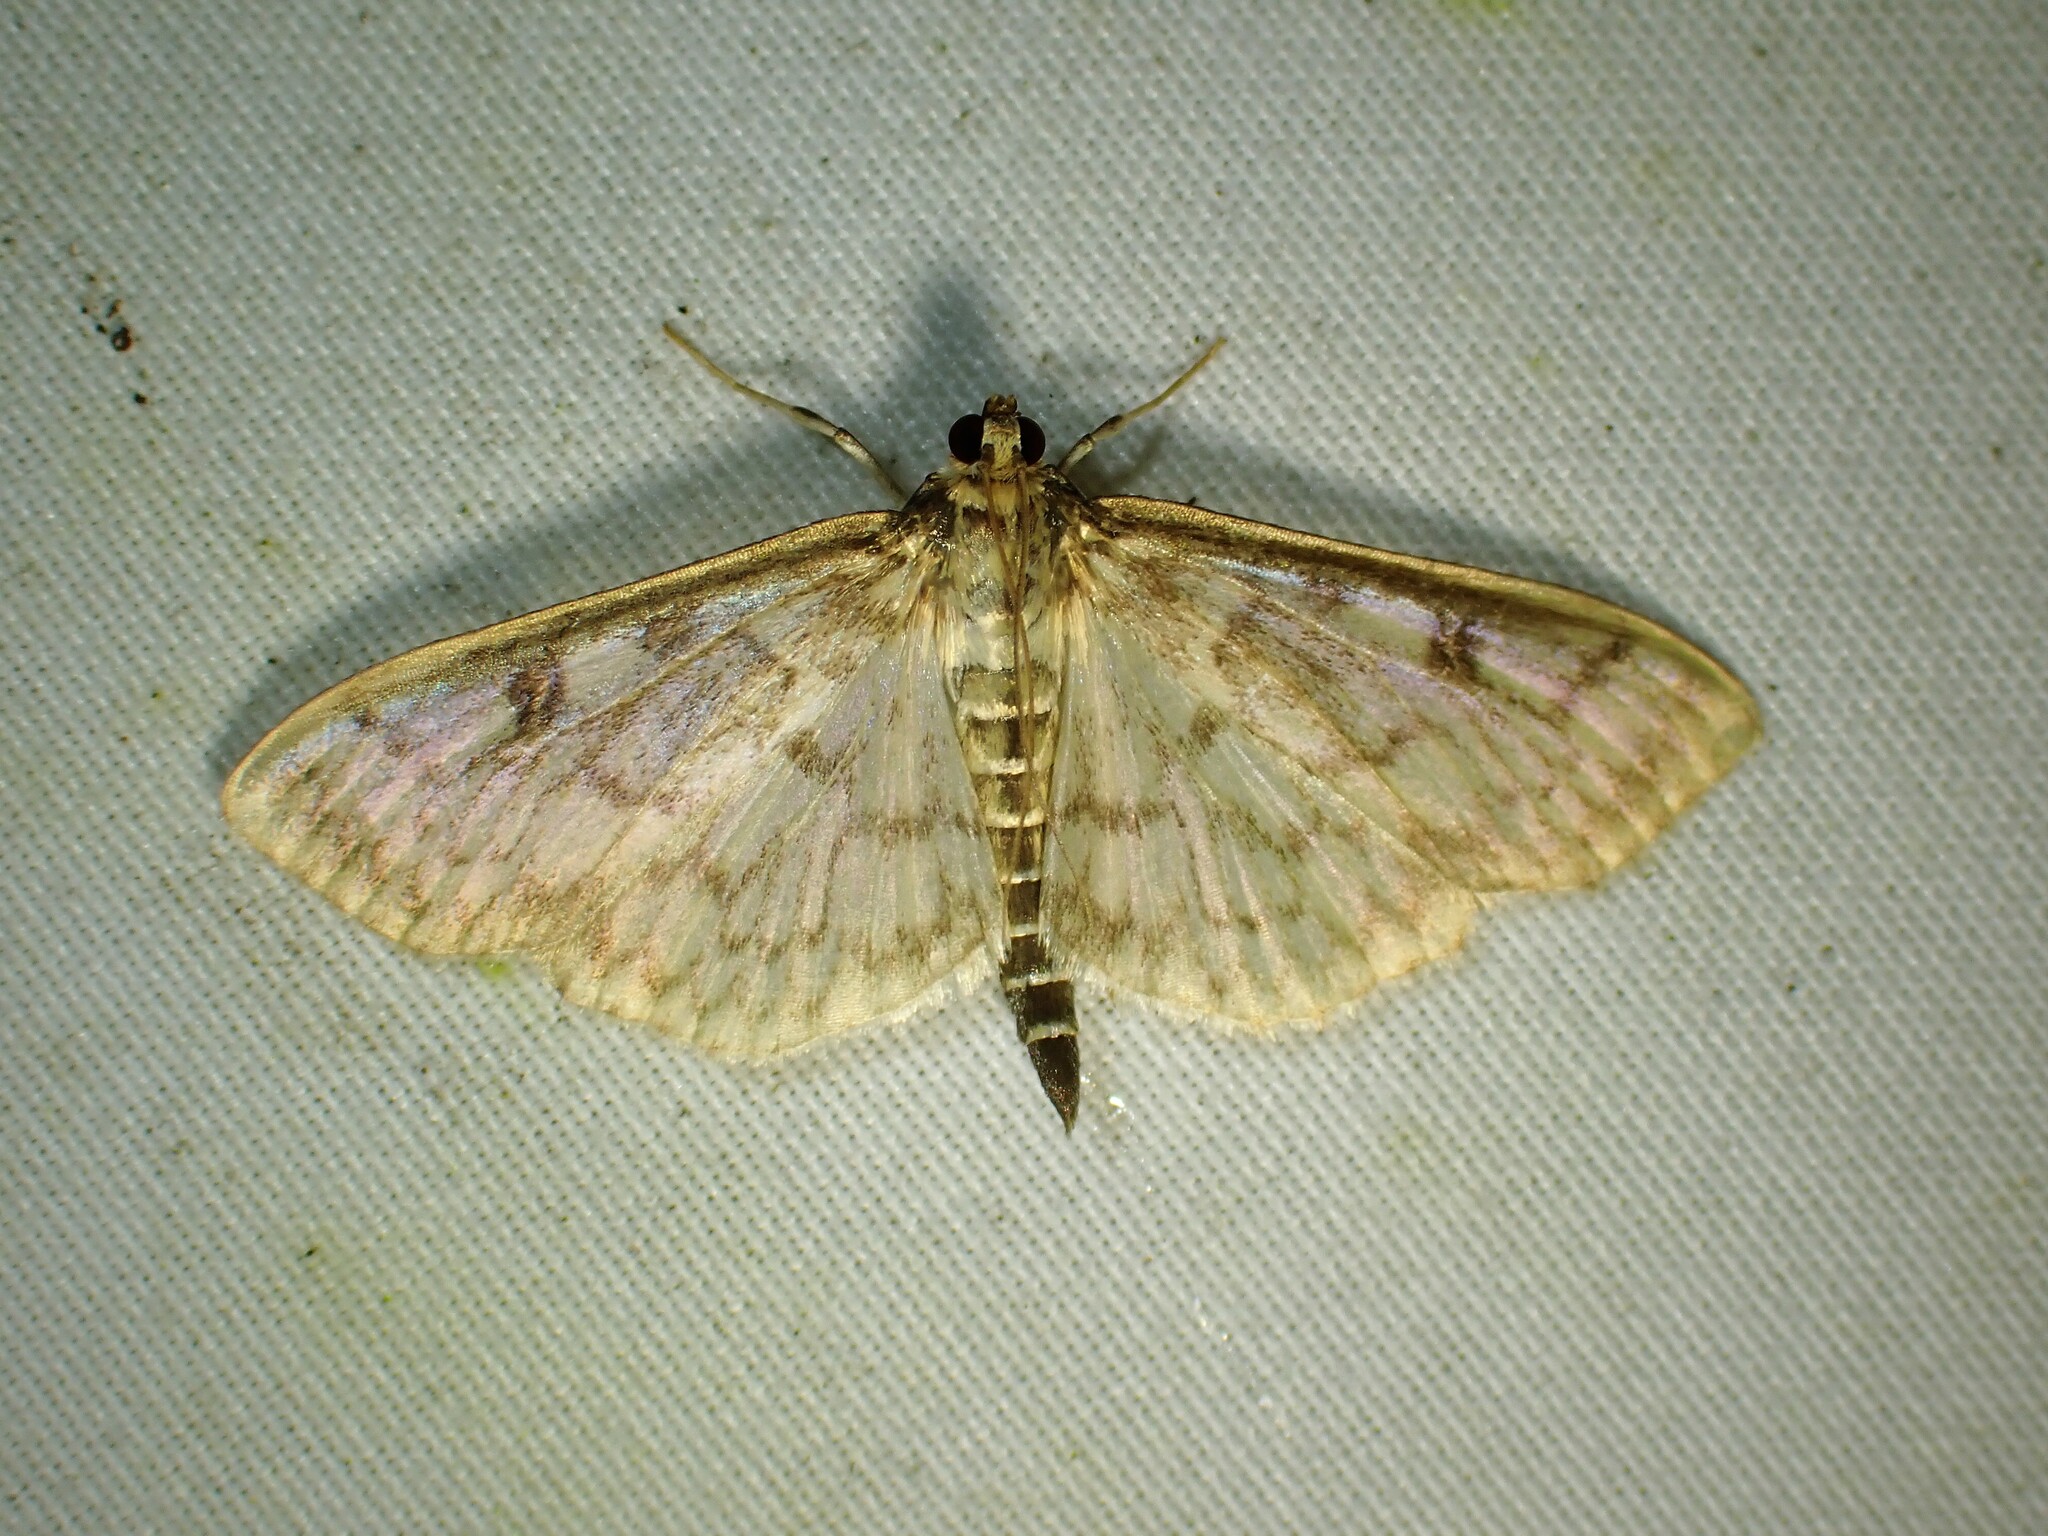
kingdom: Animalia
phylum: Arthropoda
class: Insecta
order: Lepidoptera
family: Crambidae
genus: Herpetogramma
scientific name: Herpetogramma aquilonalis
